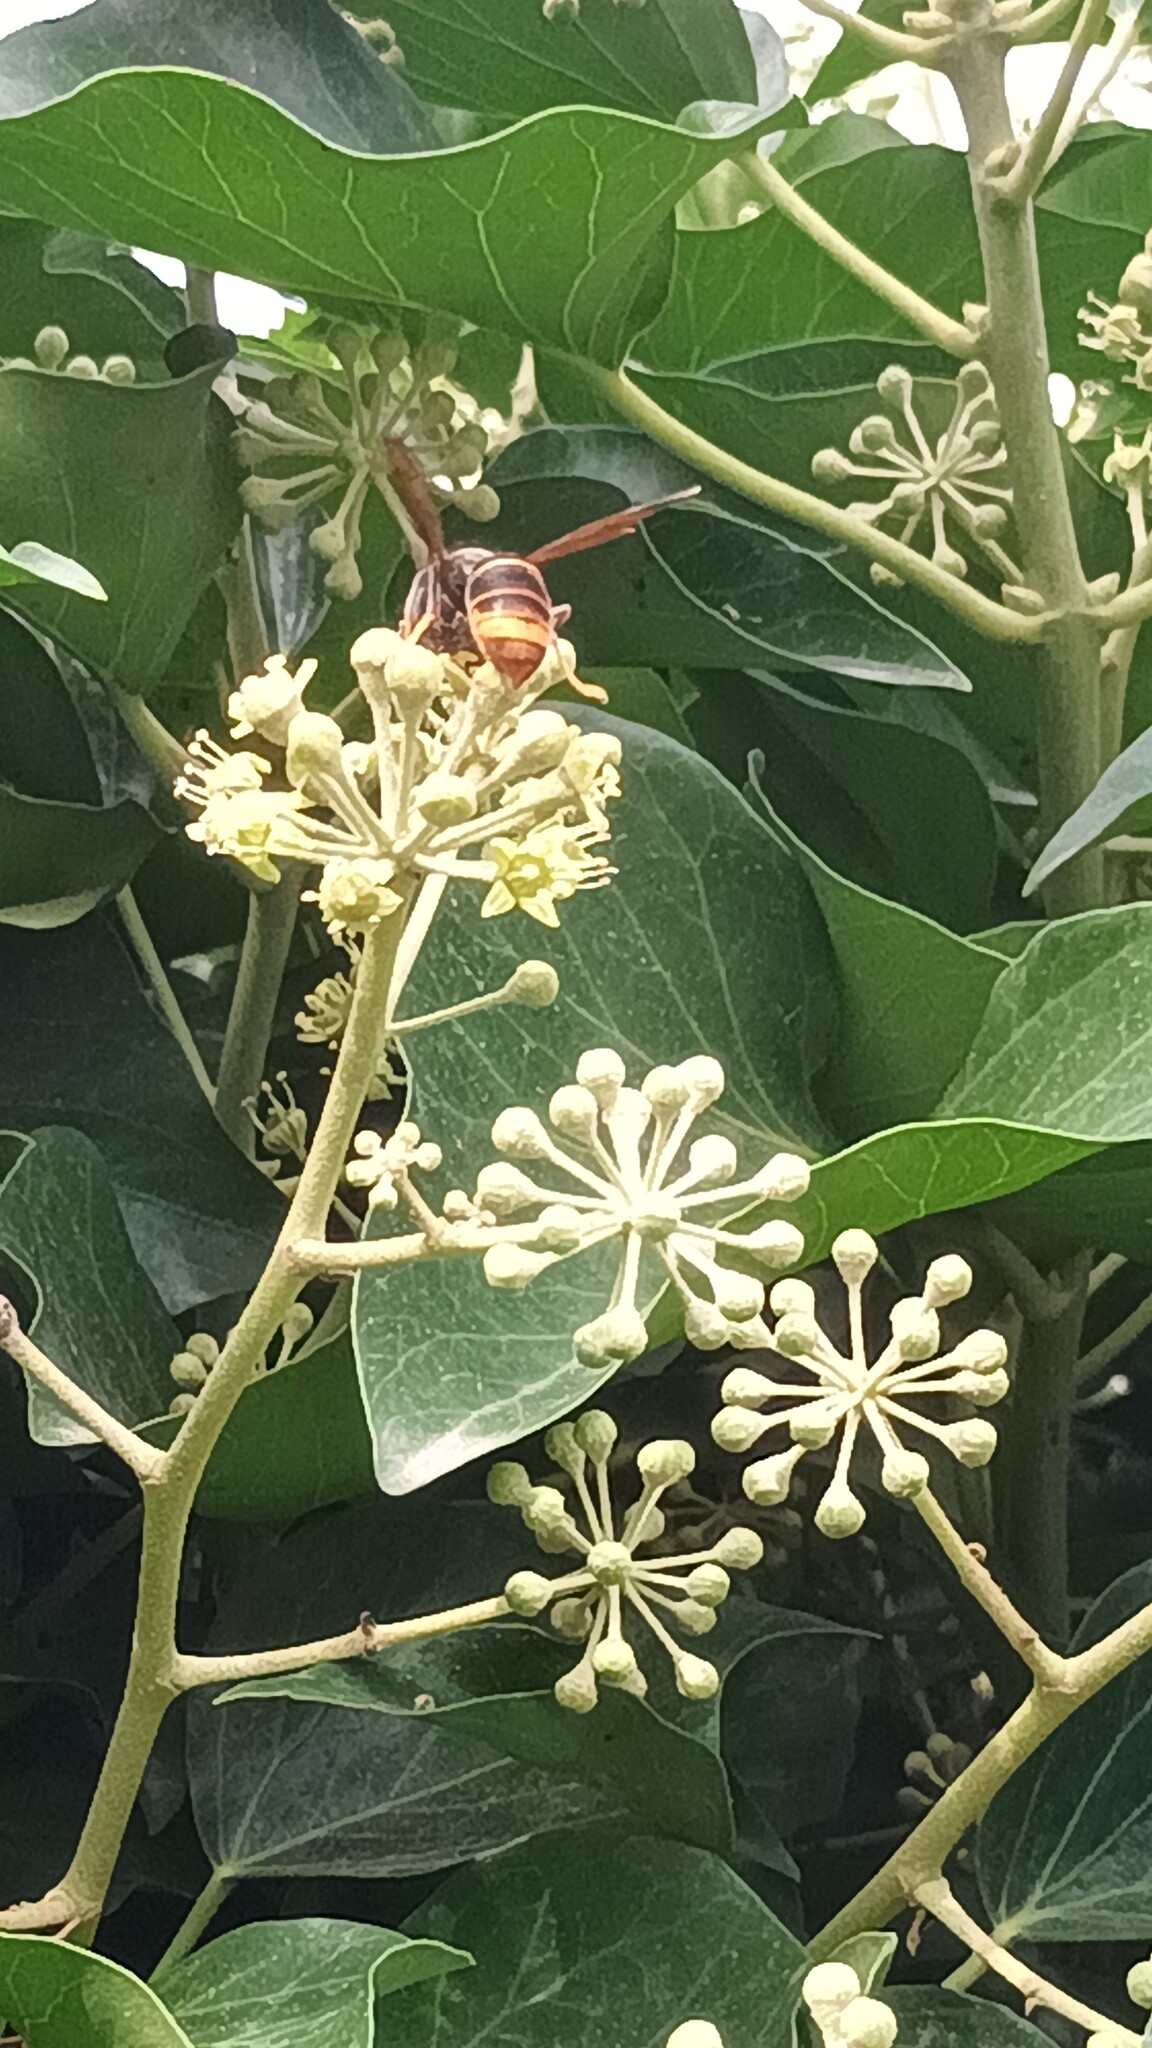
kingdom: Animalia
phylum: Arthropoda
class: Insecta
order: Hymenoptera
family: Vespidae
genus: Vespa
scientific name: Vespa velutina
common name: Asian hornet
